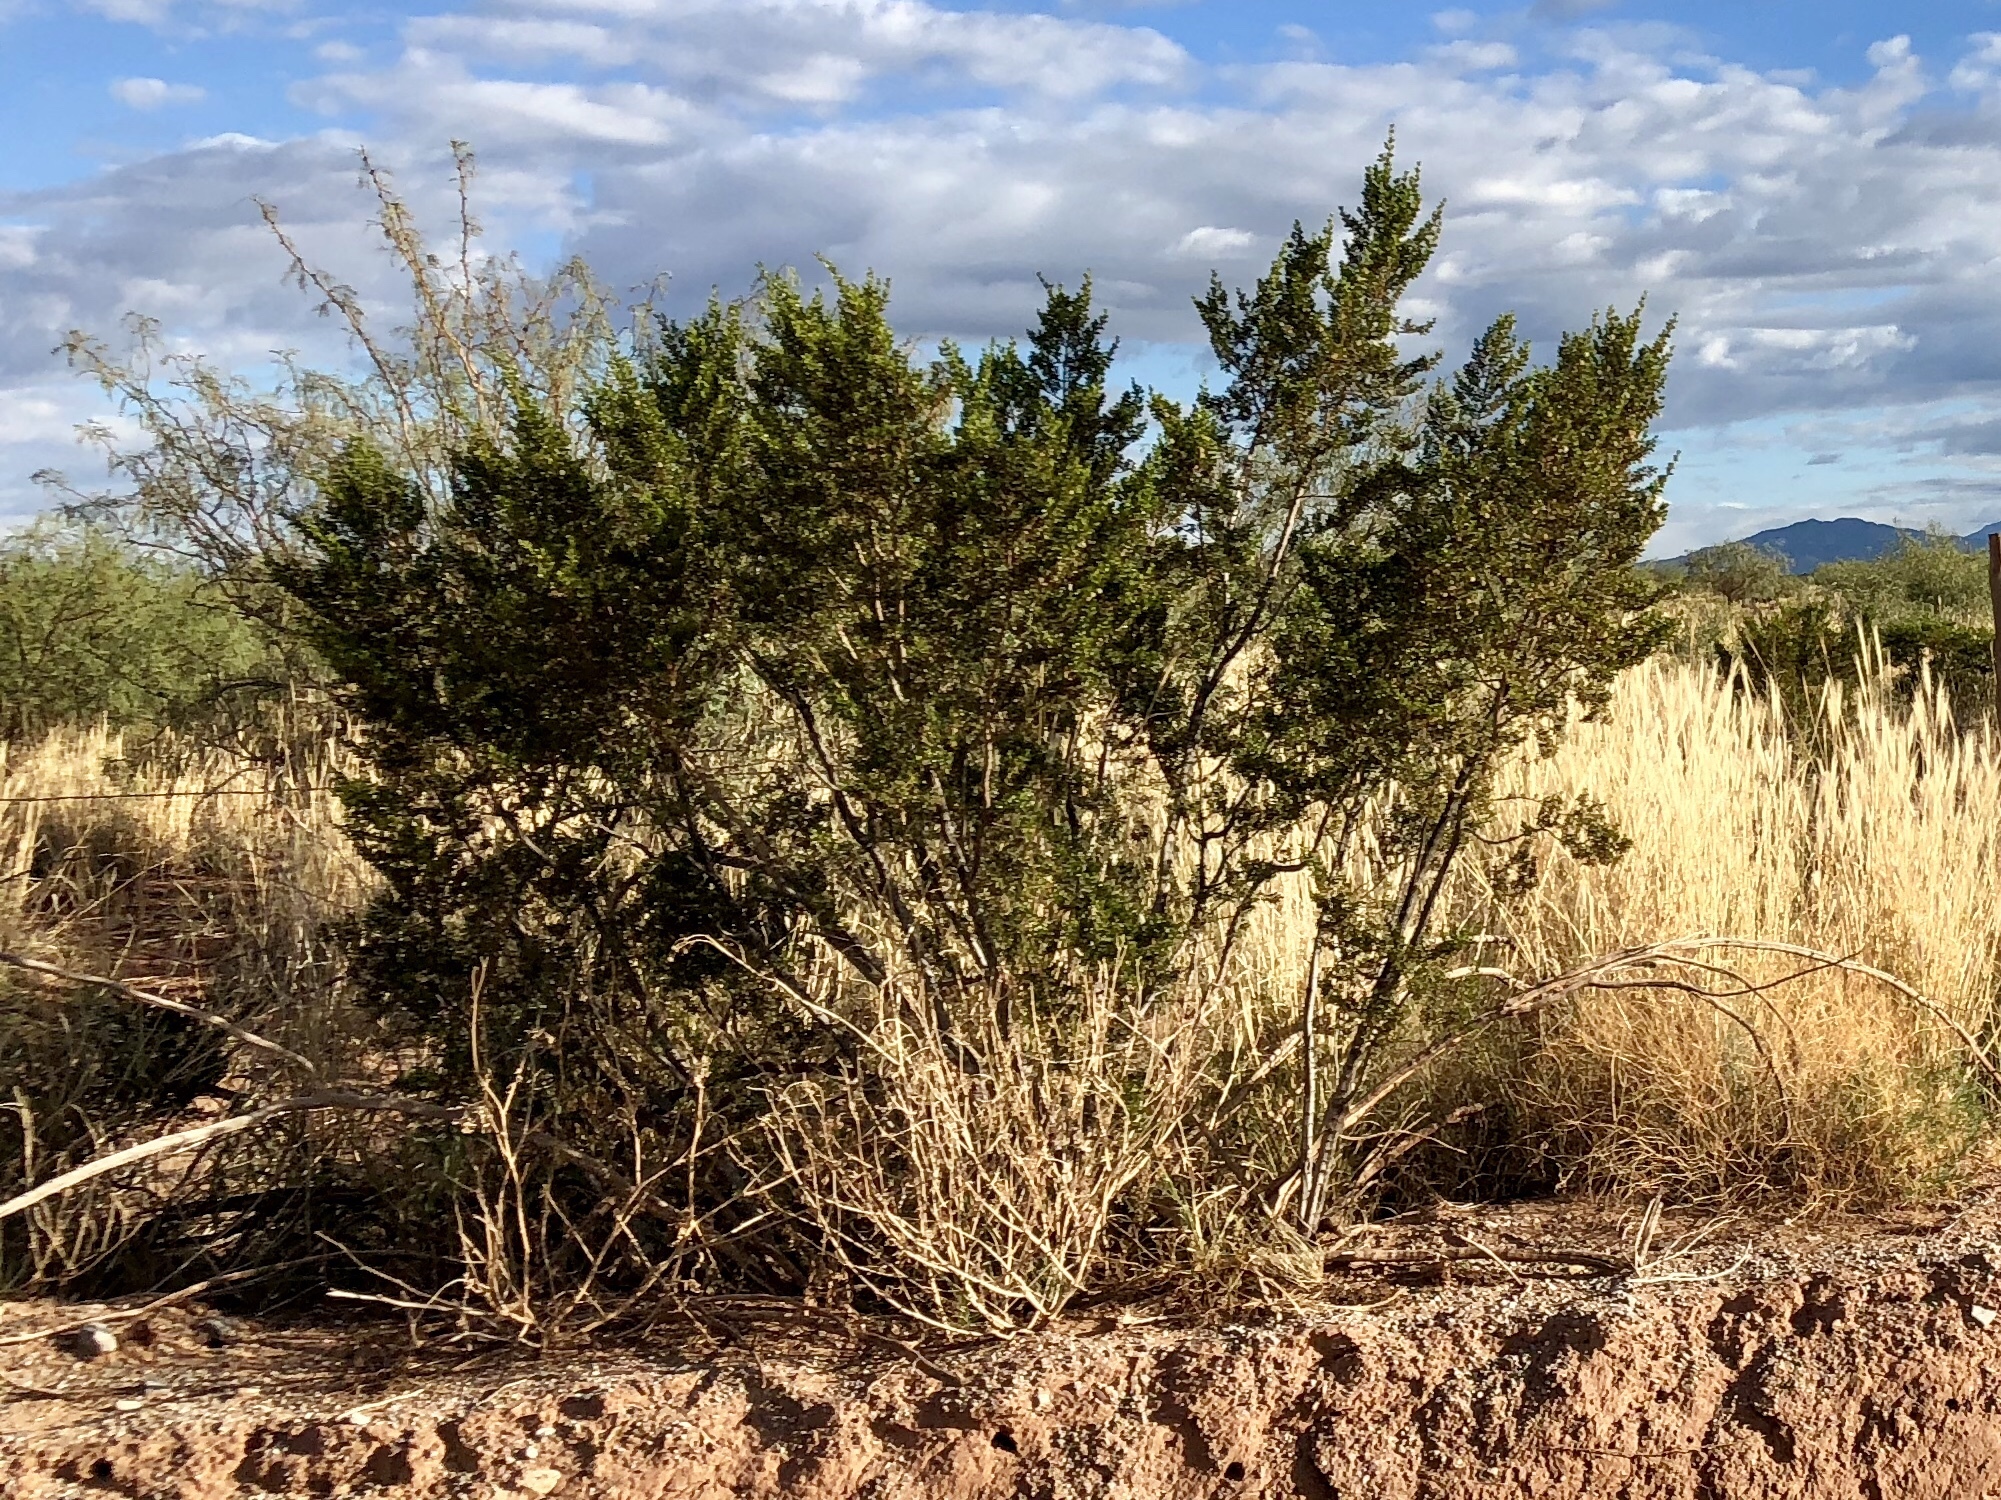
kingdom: Plantae
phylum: Tracheophyta
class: Magnoliopsida
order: Zygophyllales
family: Zygophyllaceae
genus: Larrea
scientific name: Larrea tridentata
